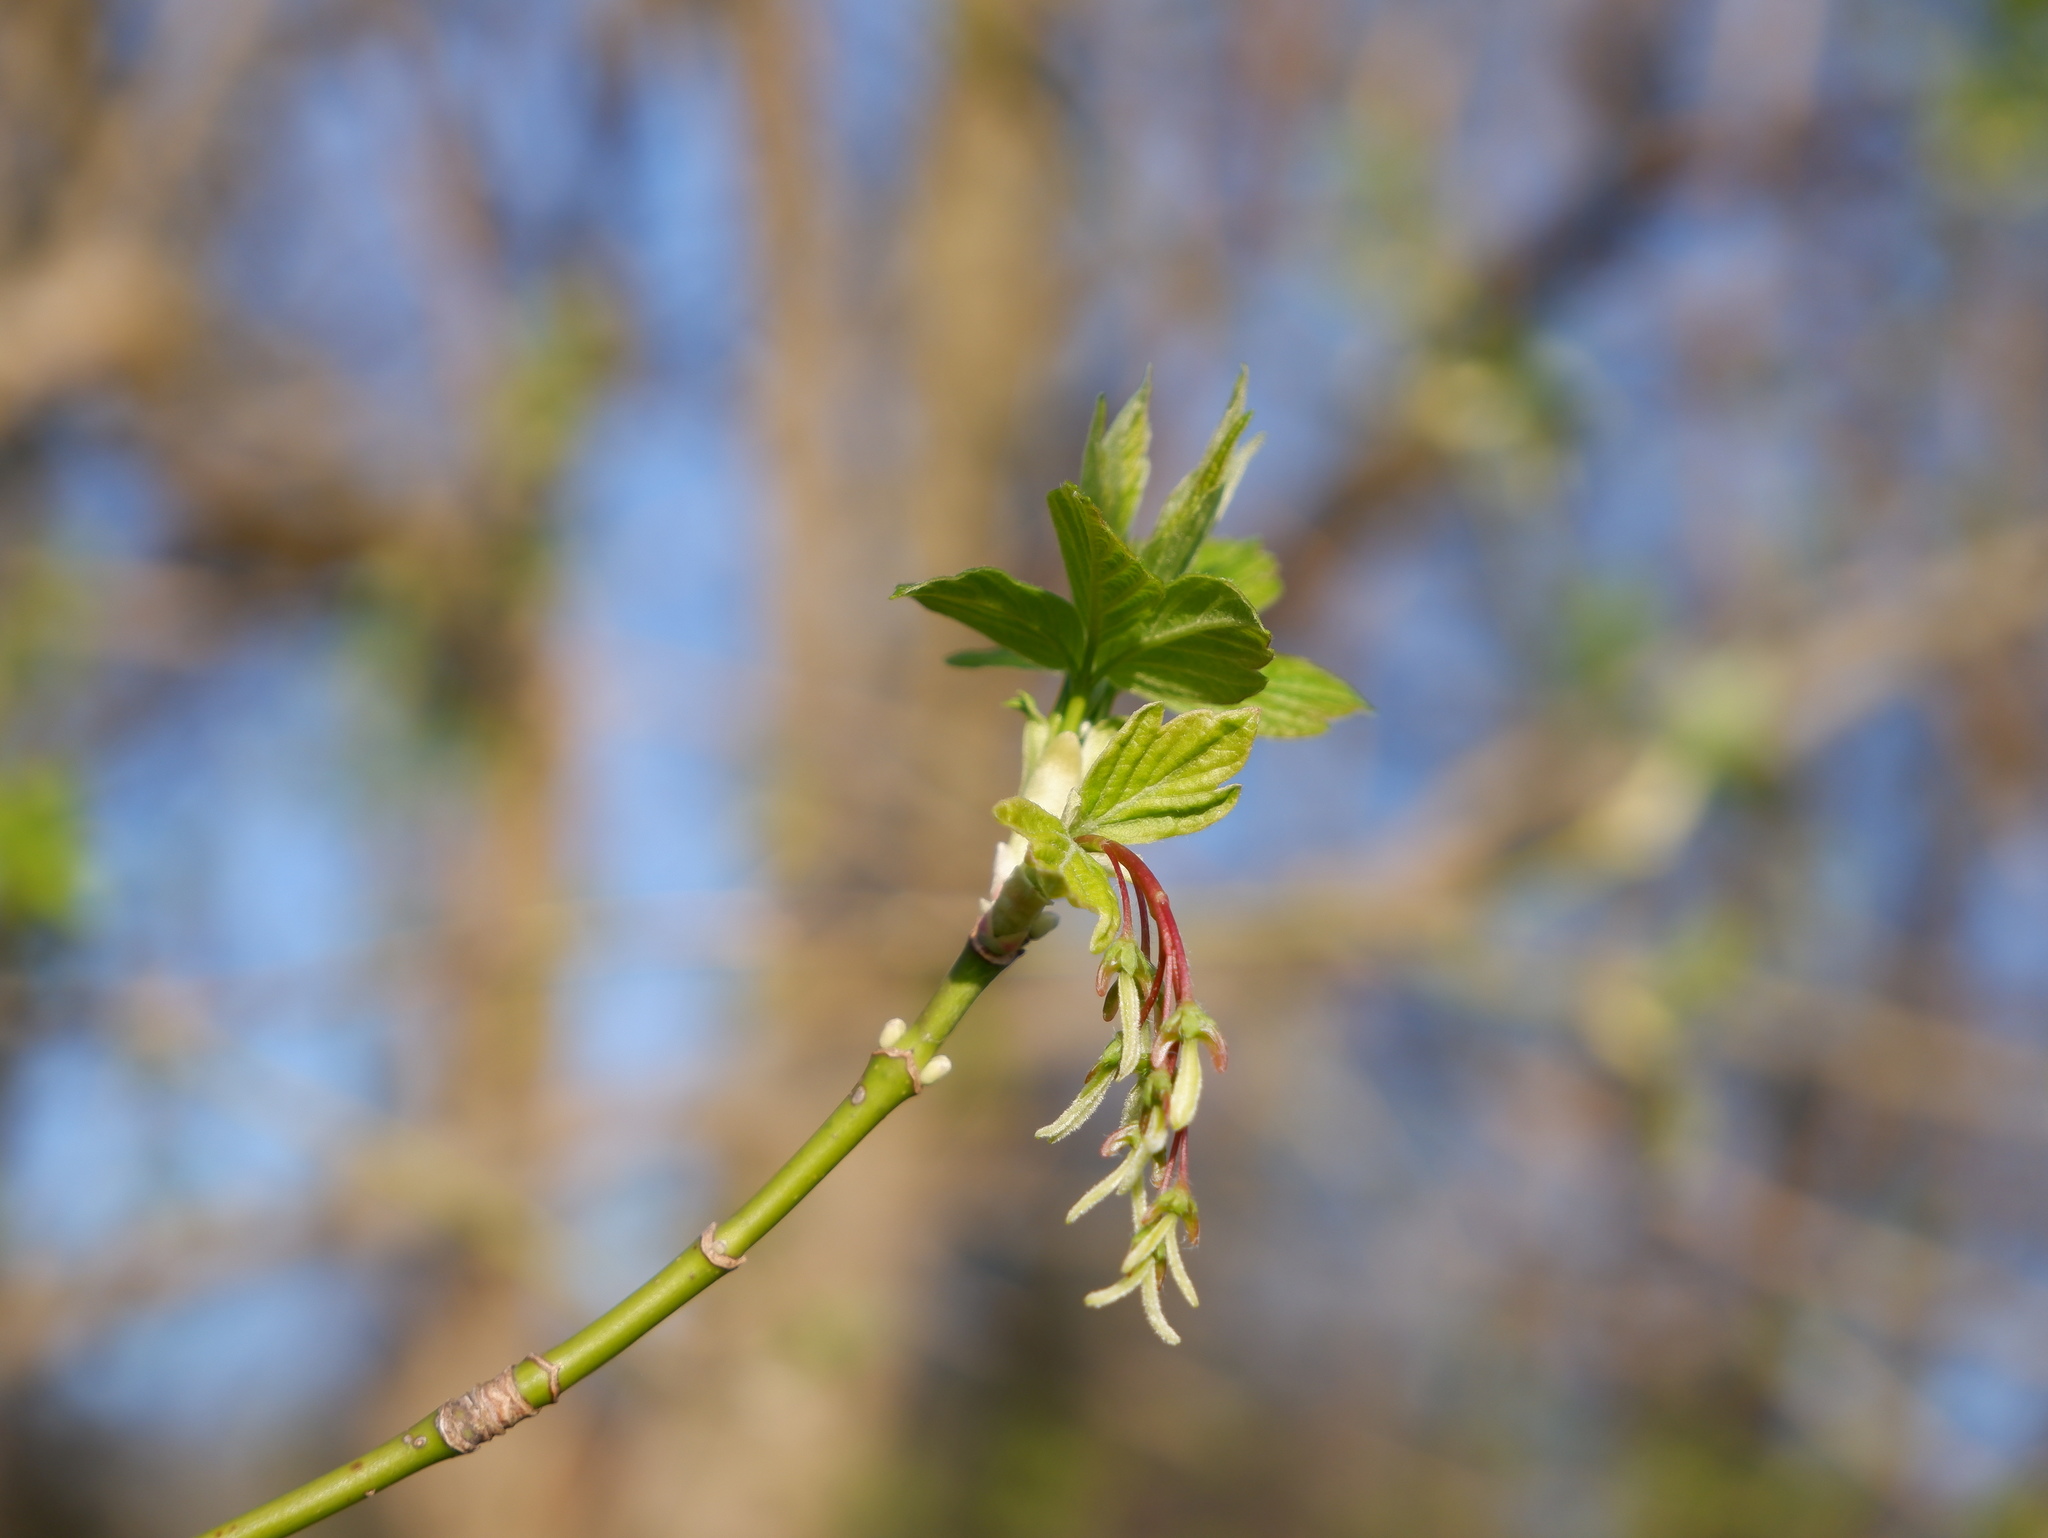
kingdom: Plantae
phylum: Tracheophyta
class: Magnoliopsida
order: Sapindales
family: Sapindaceae
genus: Acer
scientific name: Acer negundo
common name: Ashleaf maple
